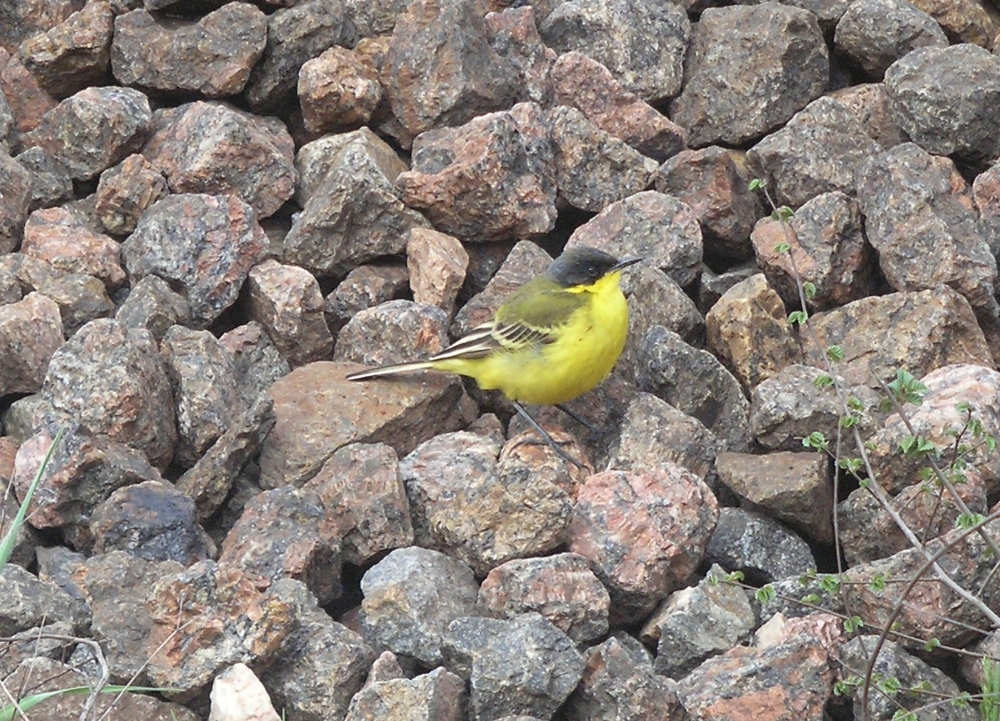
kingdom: Animalia
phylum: Chordata
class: Aves
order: Passeriformes
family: Motacillidae
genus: Motacilla
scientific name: Motacilla flava
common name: Western yellow wagtail
